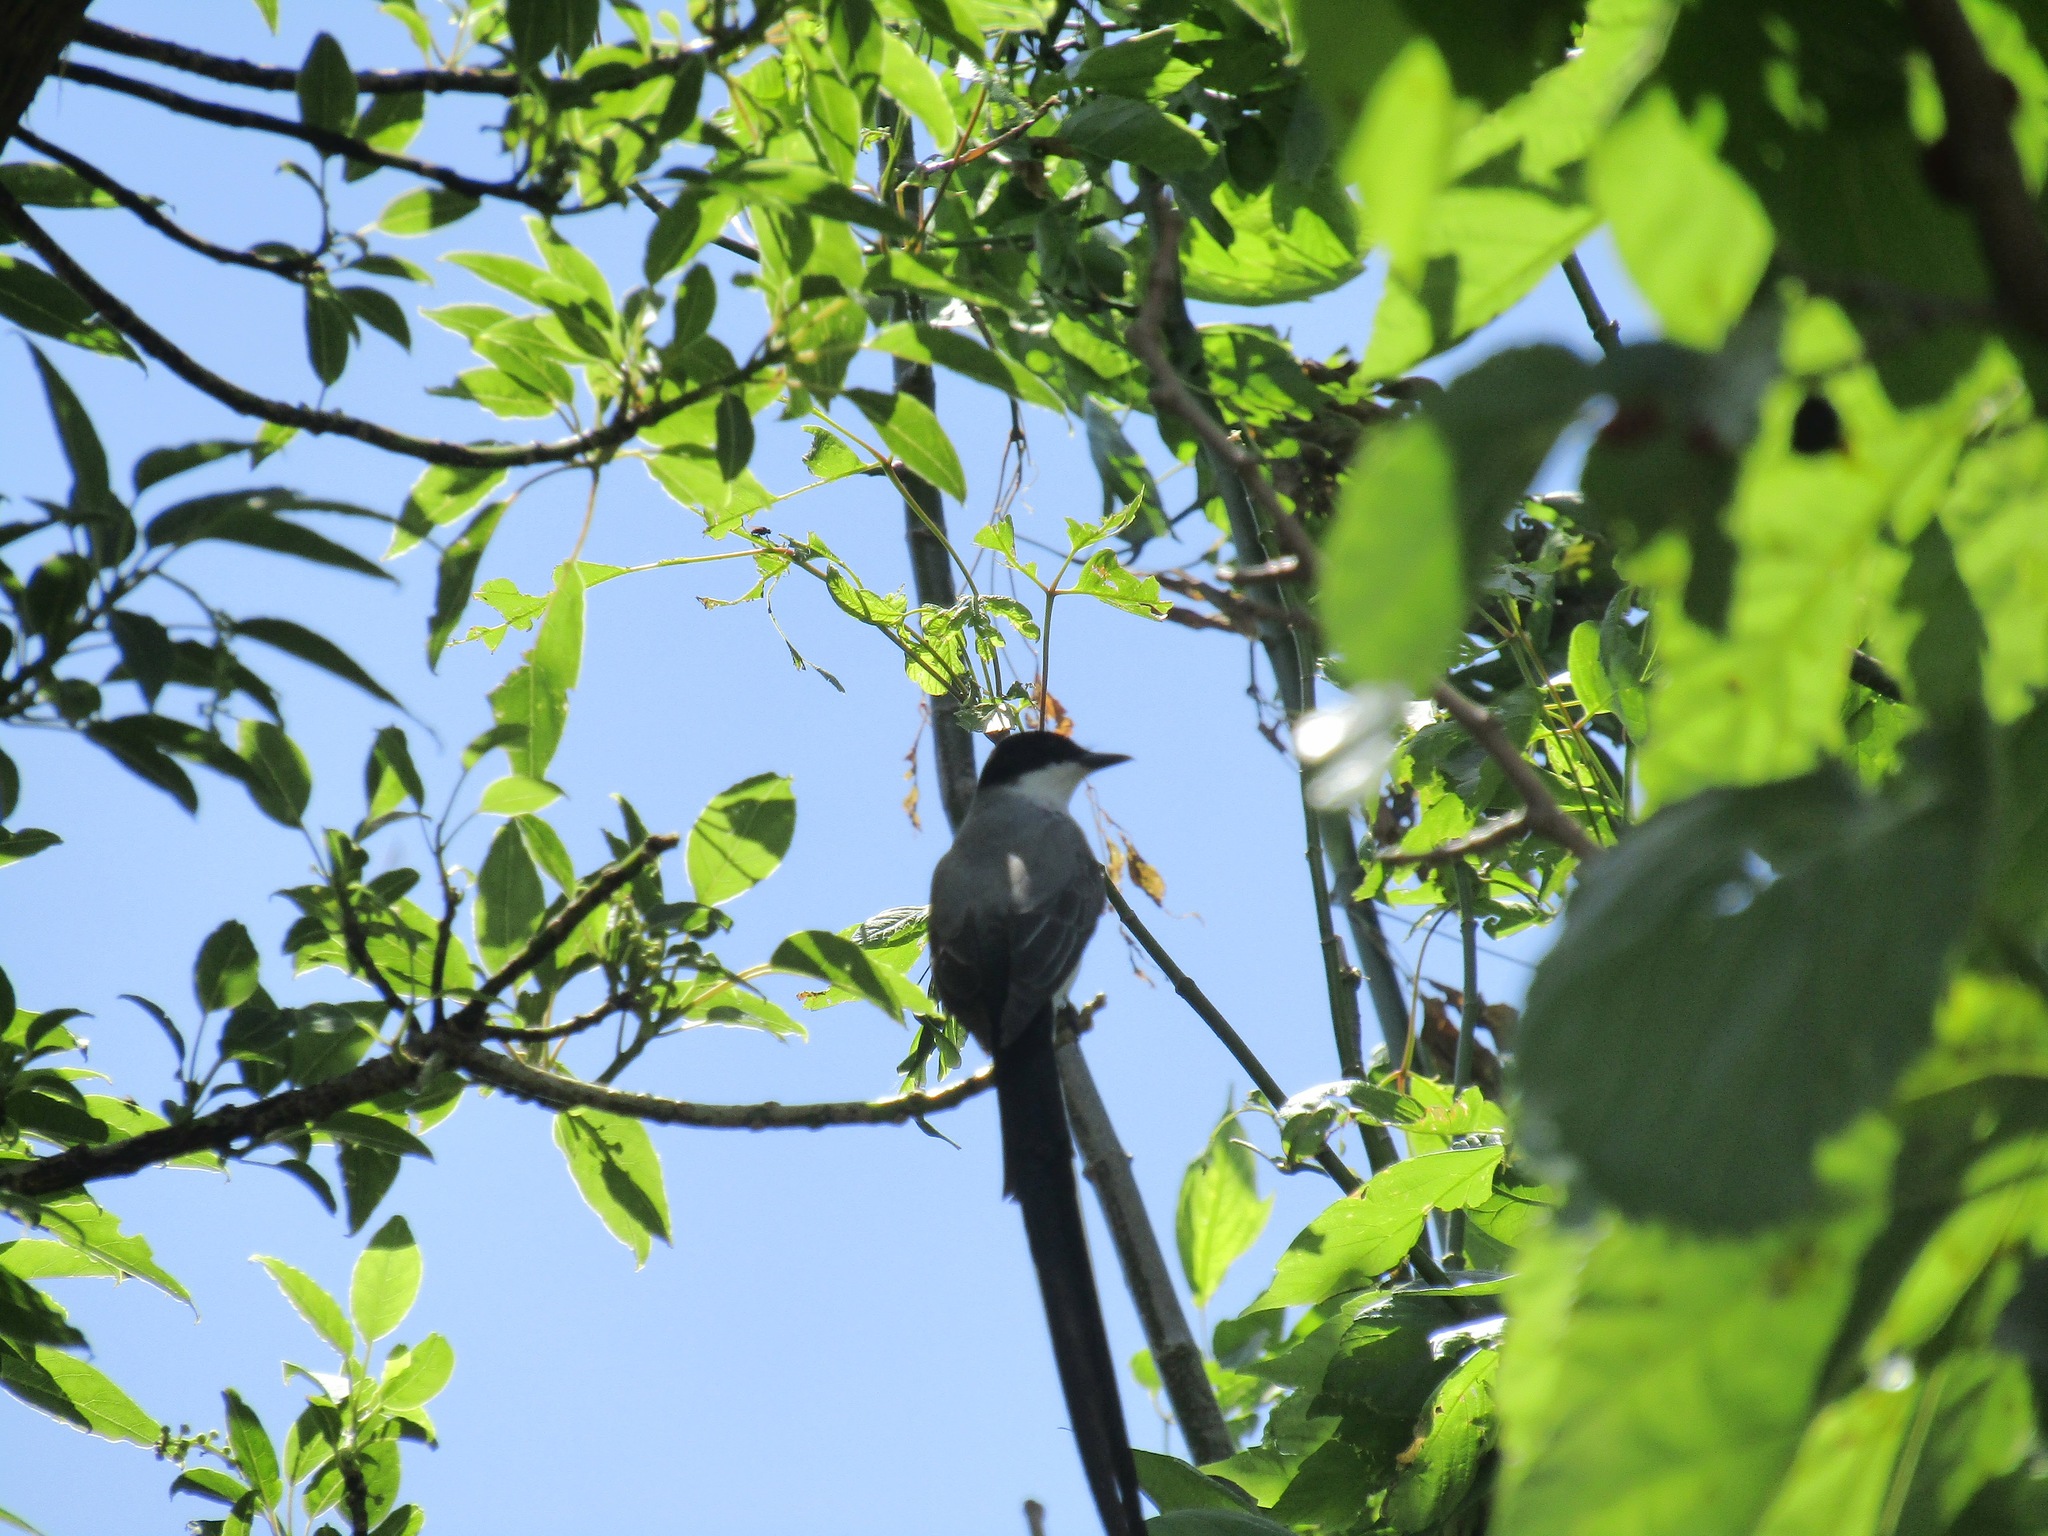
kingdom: Animalia
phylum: Chordata
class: Aves
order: Passeriformes
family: Tyrannidae
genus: Tyrannus
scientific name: Tyrannus savana
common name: Fork-tailed flycatcher
